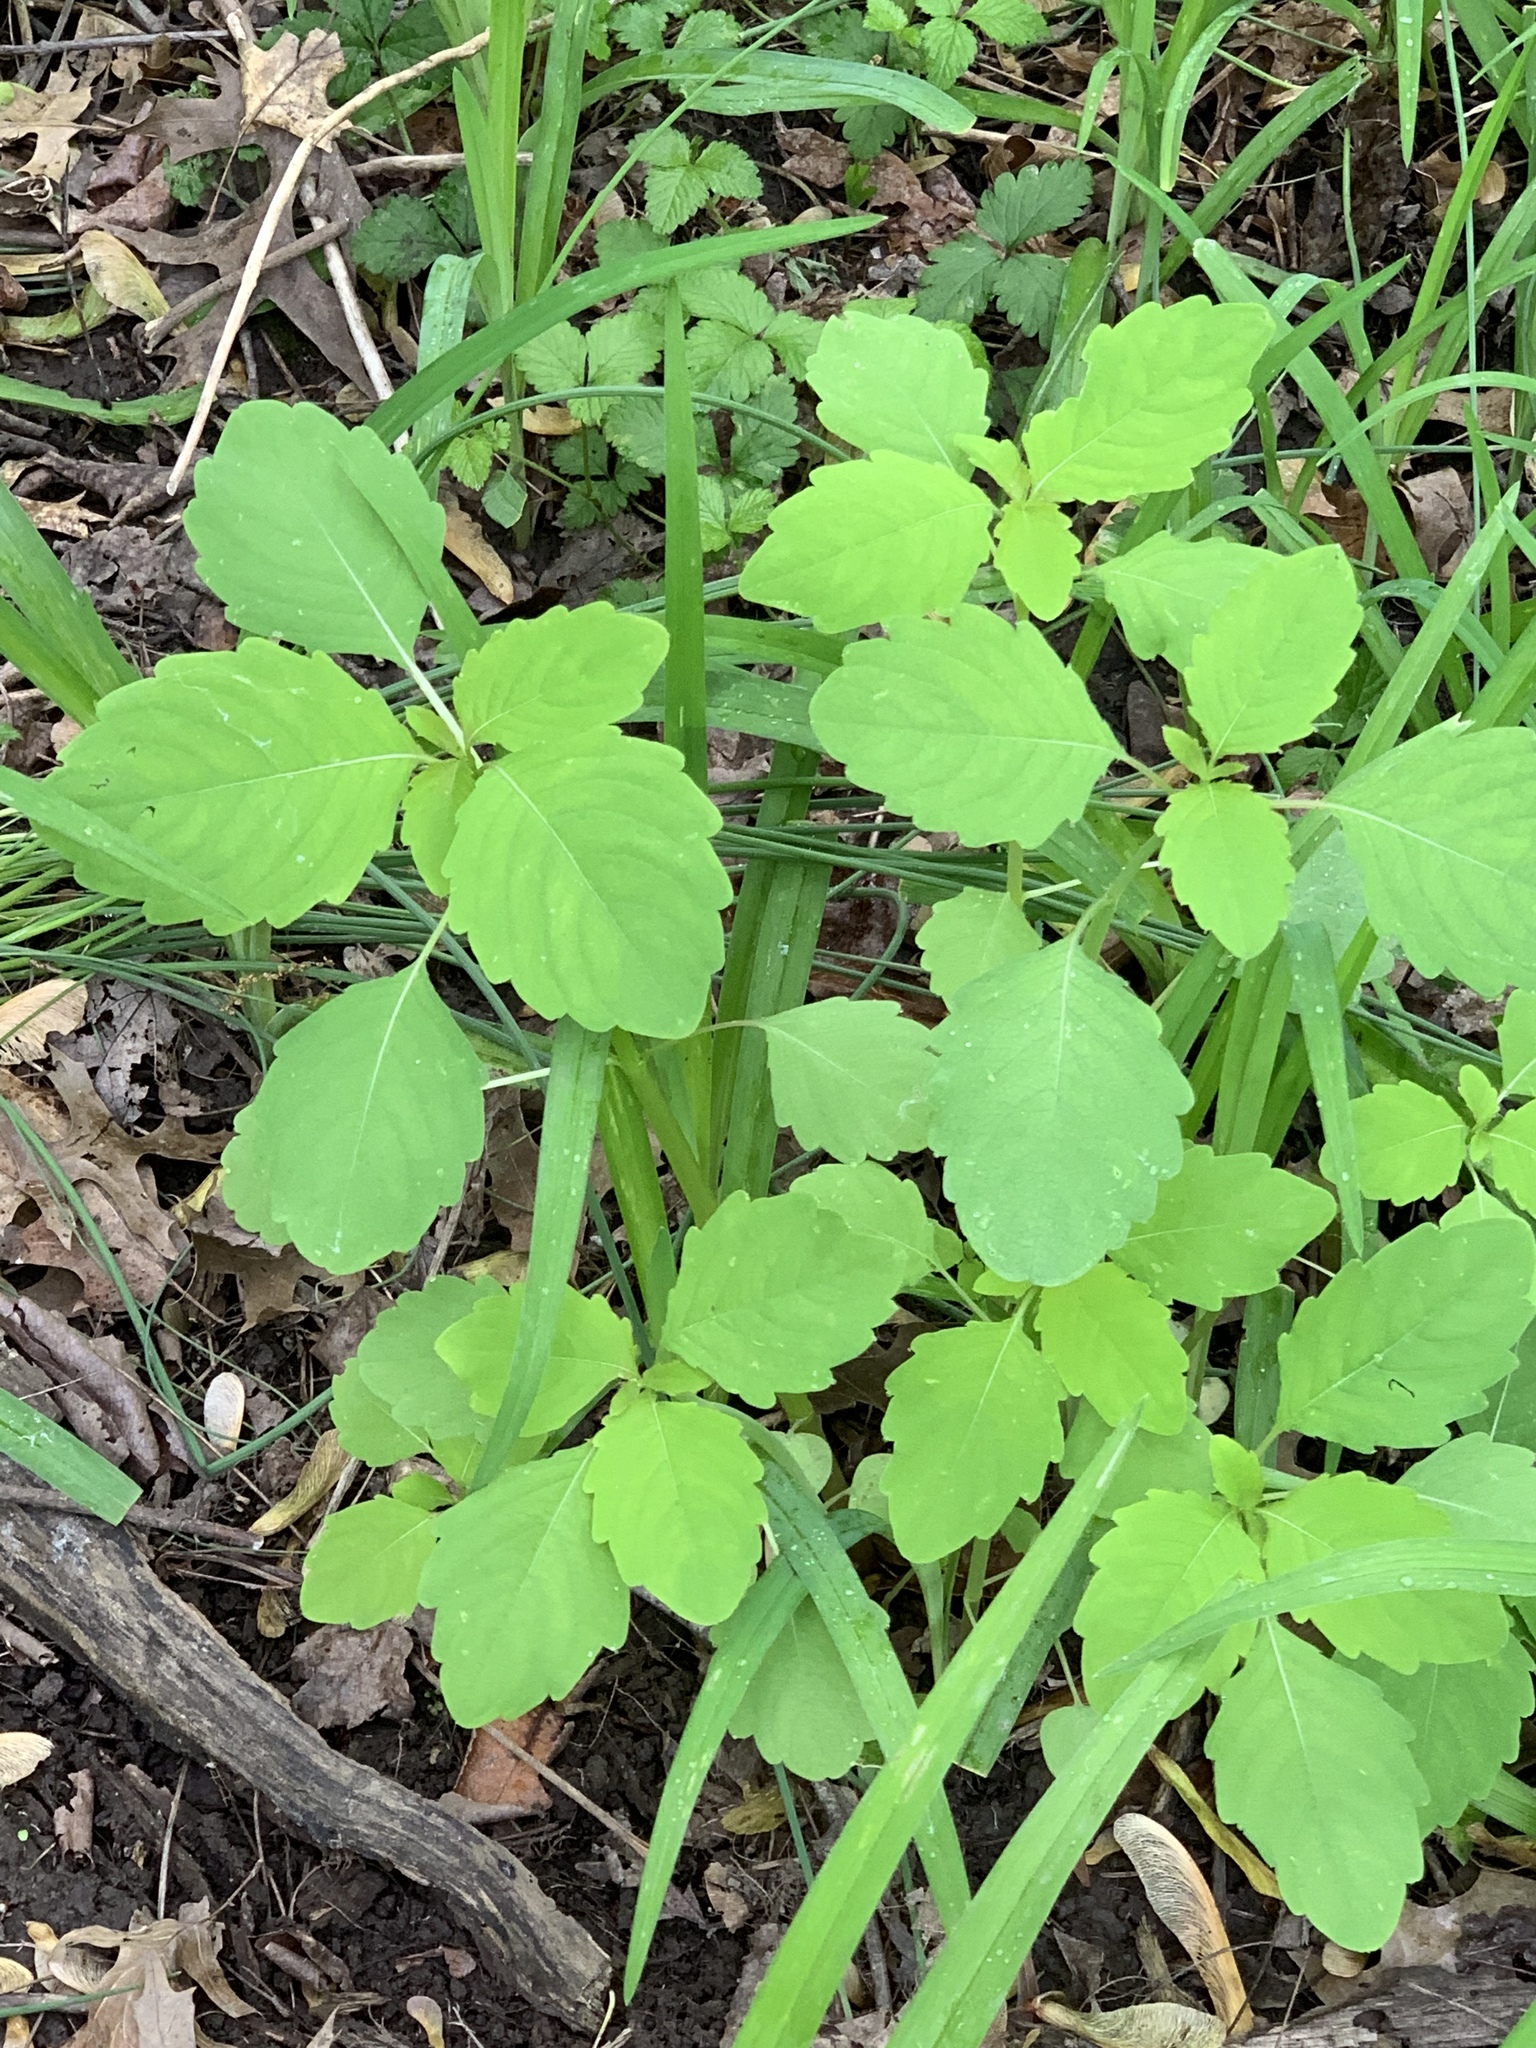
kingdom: Plantae
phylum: Tracheophyta
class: Magnoliopsida
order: Ericales
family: Balsaminaceae
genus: Impatiens
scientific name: Impatiens capensis
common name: Orange balsam
